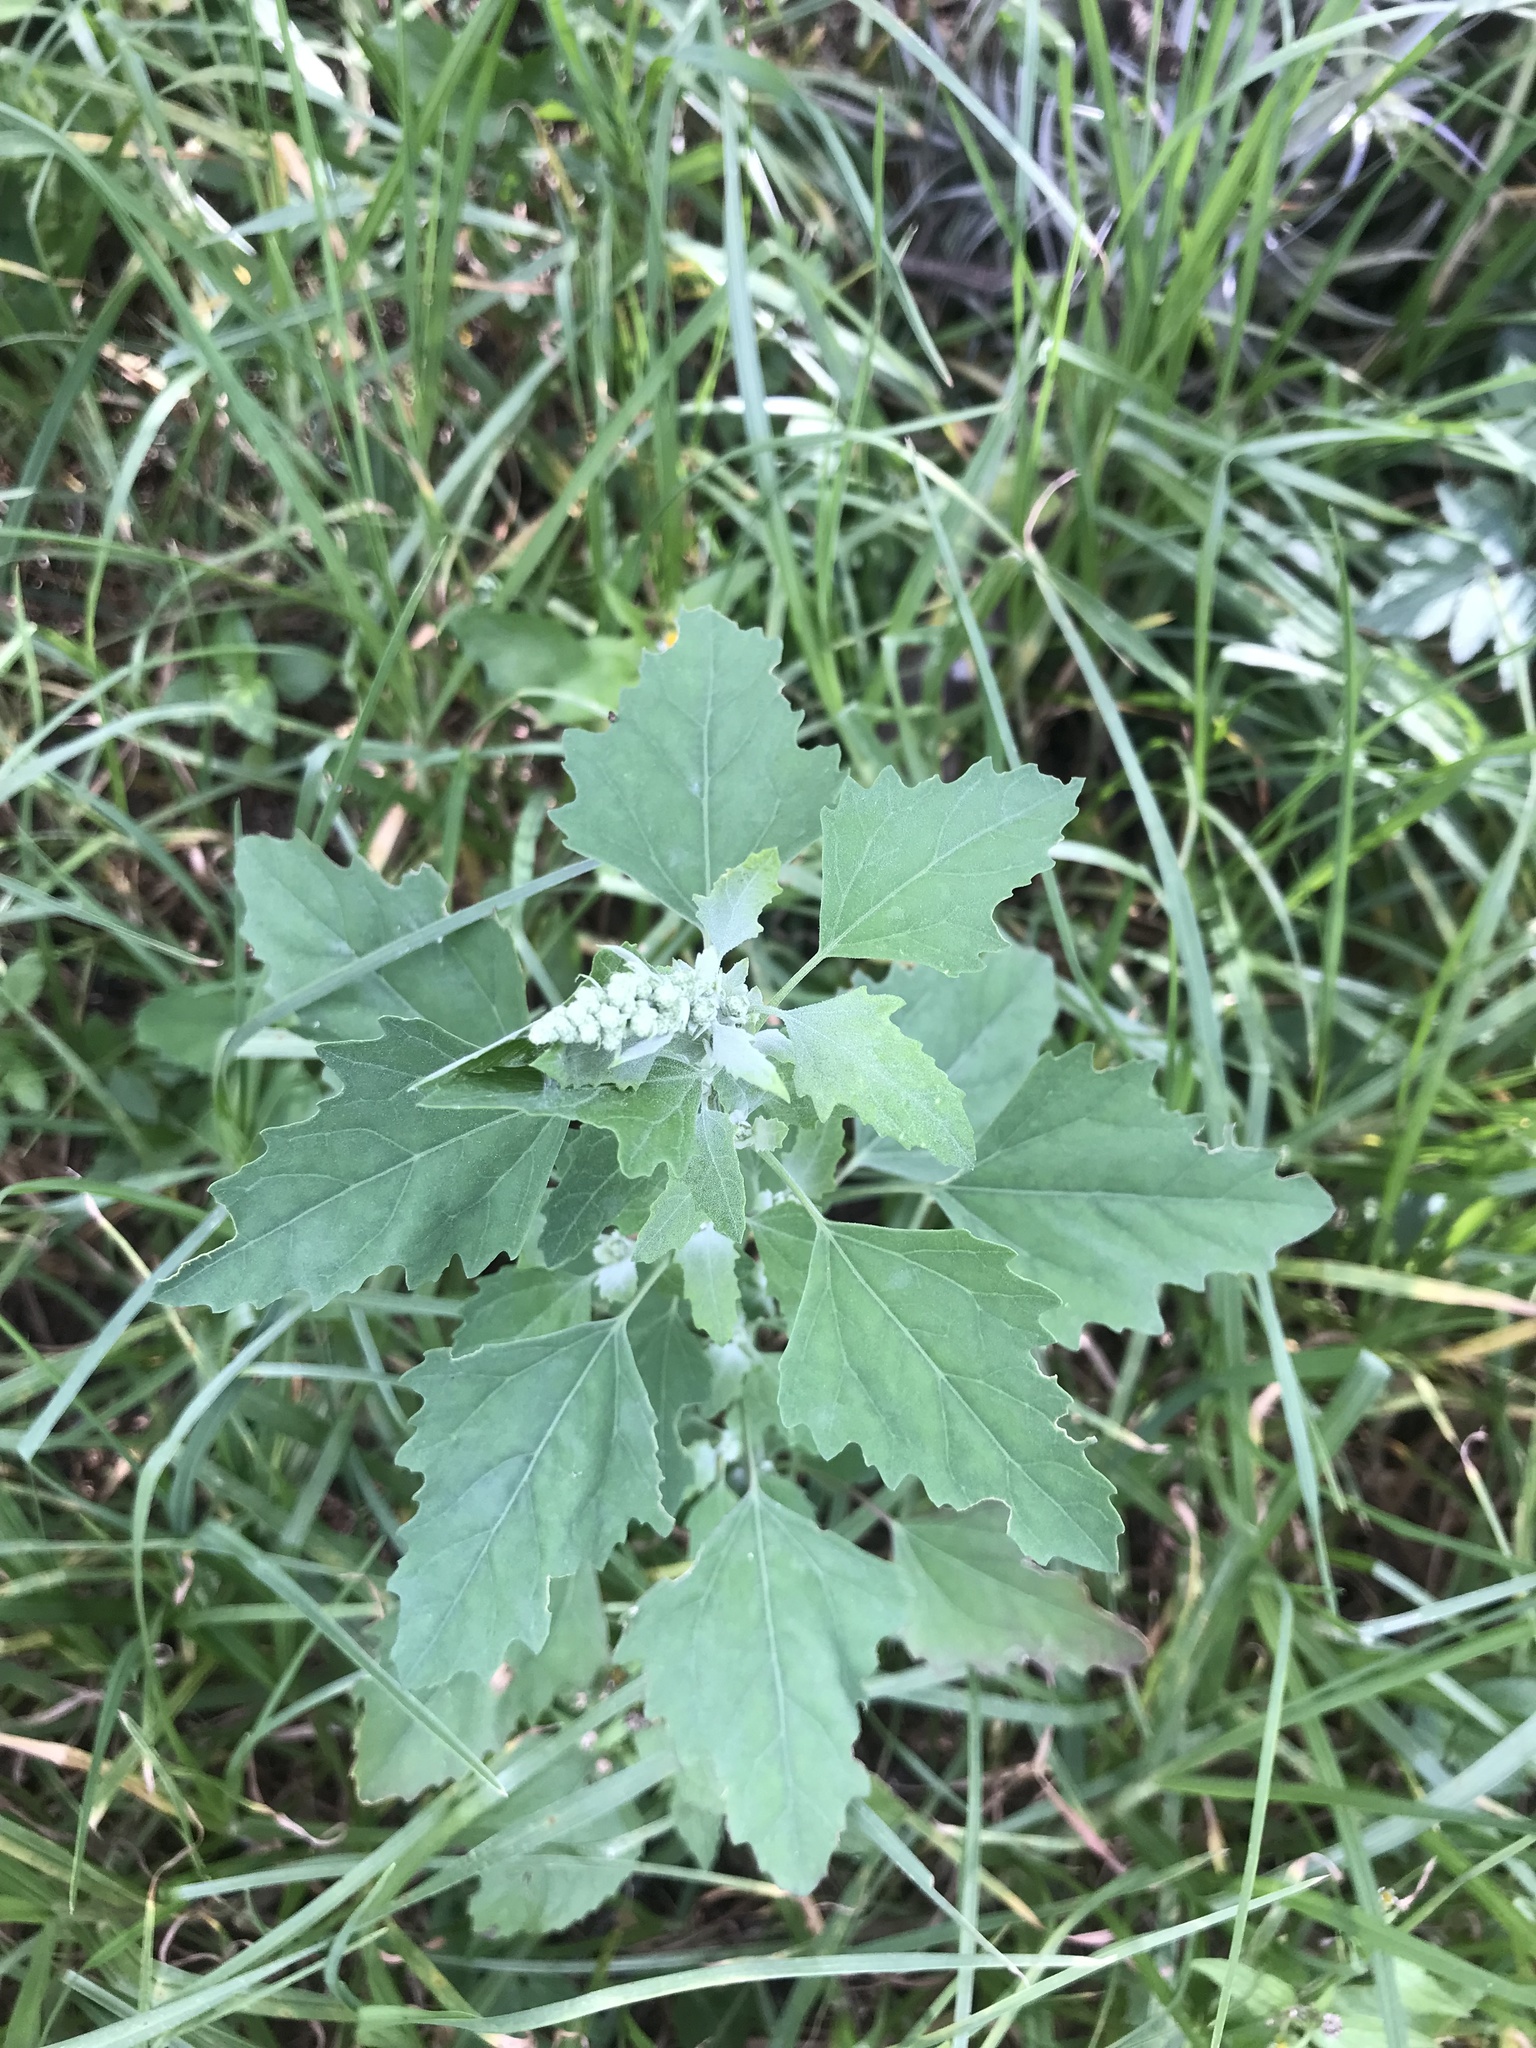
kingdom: Plantae
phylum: Tracheophyta
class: Magnoliopsida
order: Caryophyllales
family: Amaranthaceae
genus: Chenopodium
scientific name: Chenopodium album
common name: Fat-hen
